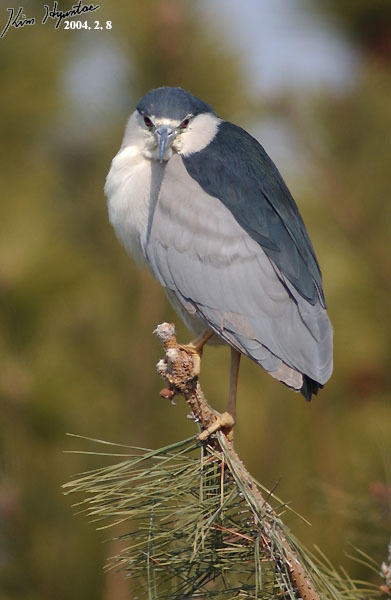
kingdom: Animalia
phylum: Chordata
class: Aves
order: Pelecaniformes
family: Ardeidae
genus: Nycticorax
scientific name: Nycticorax nycticorax
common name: Black-crowned night heron
